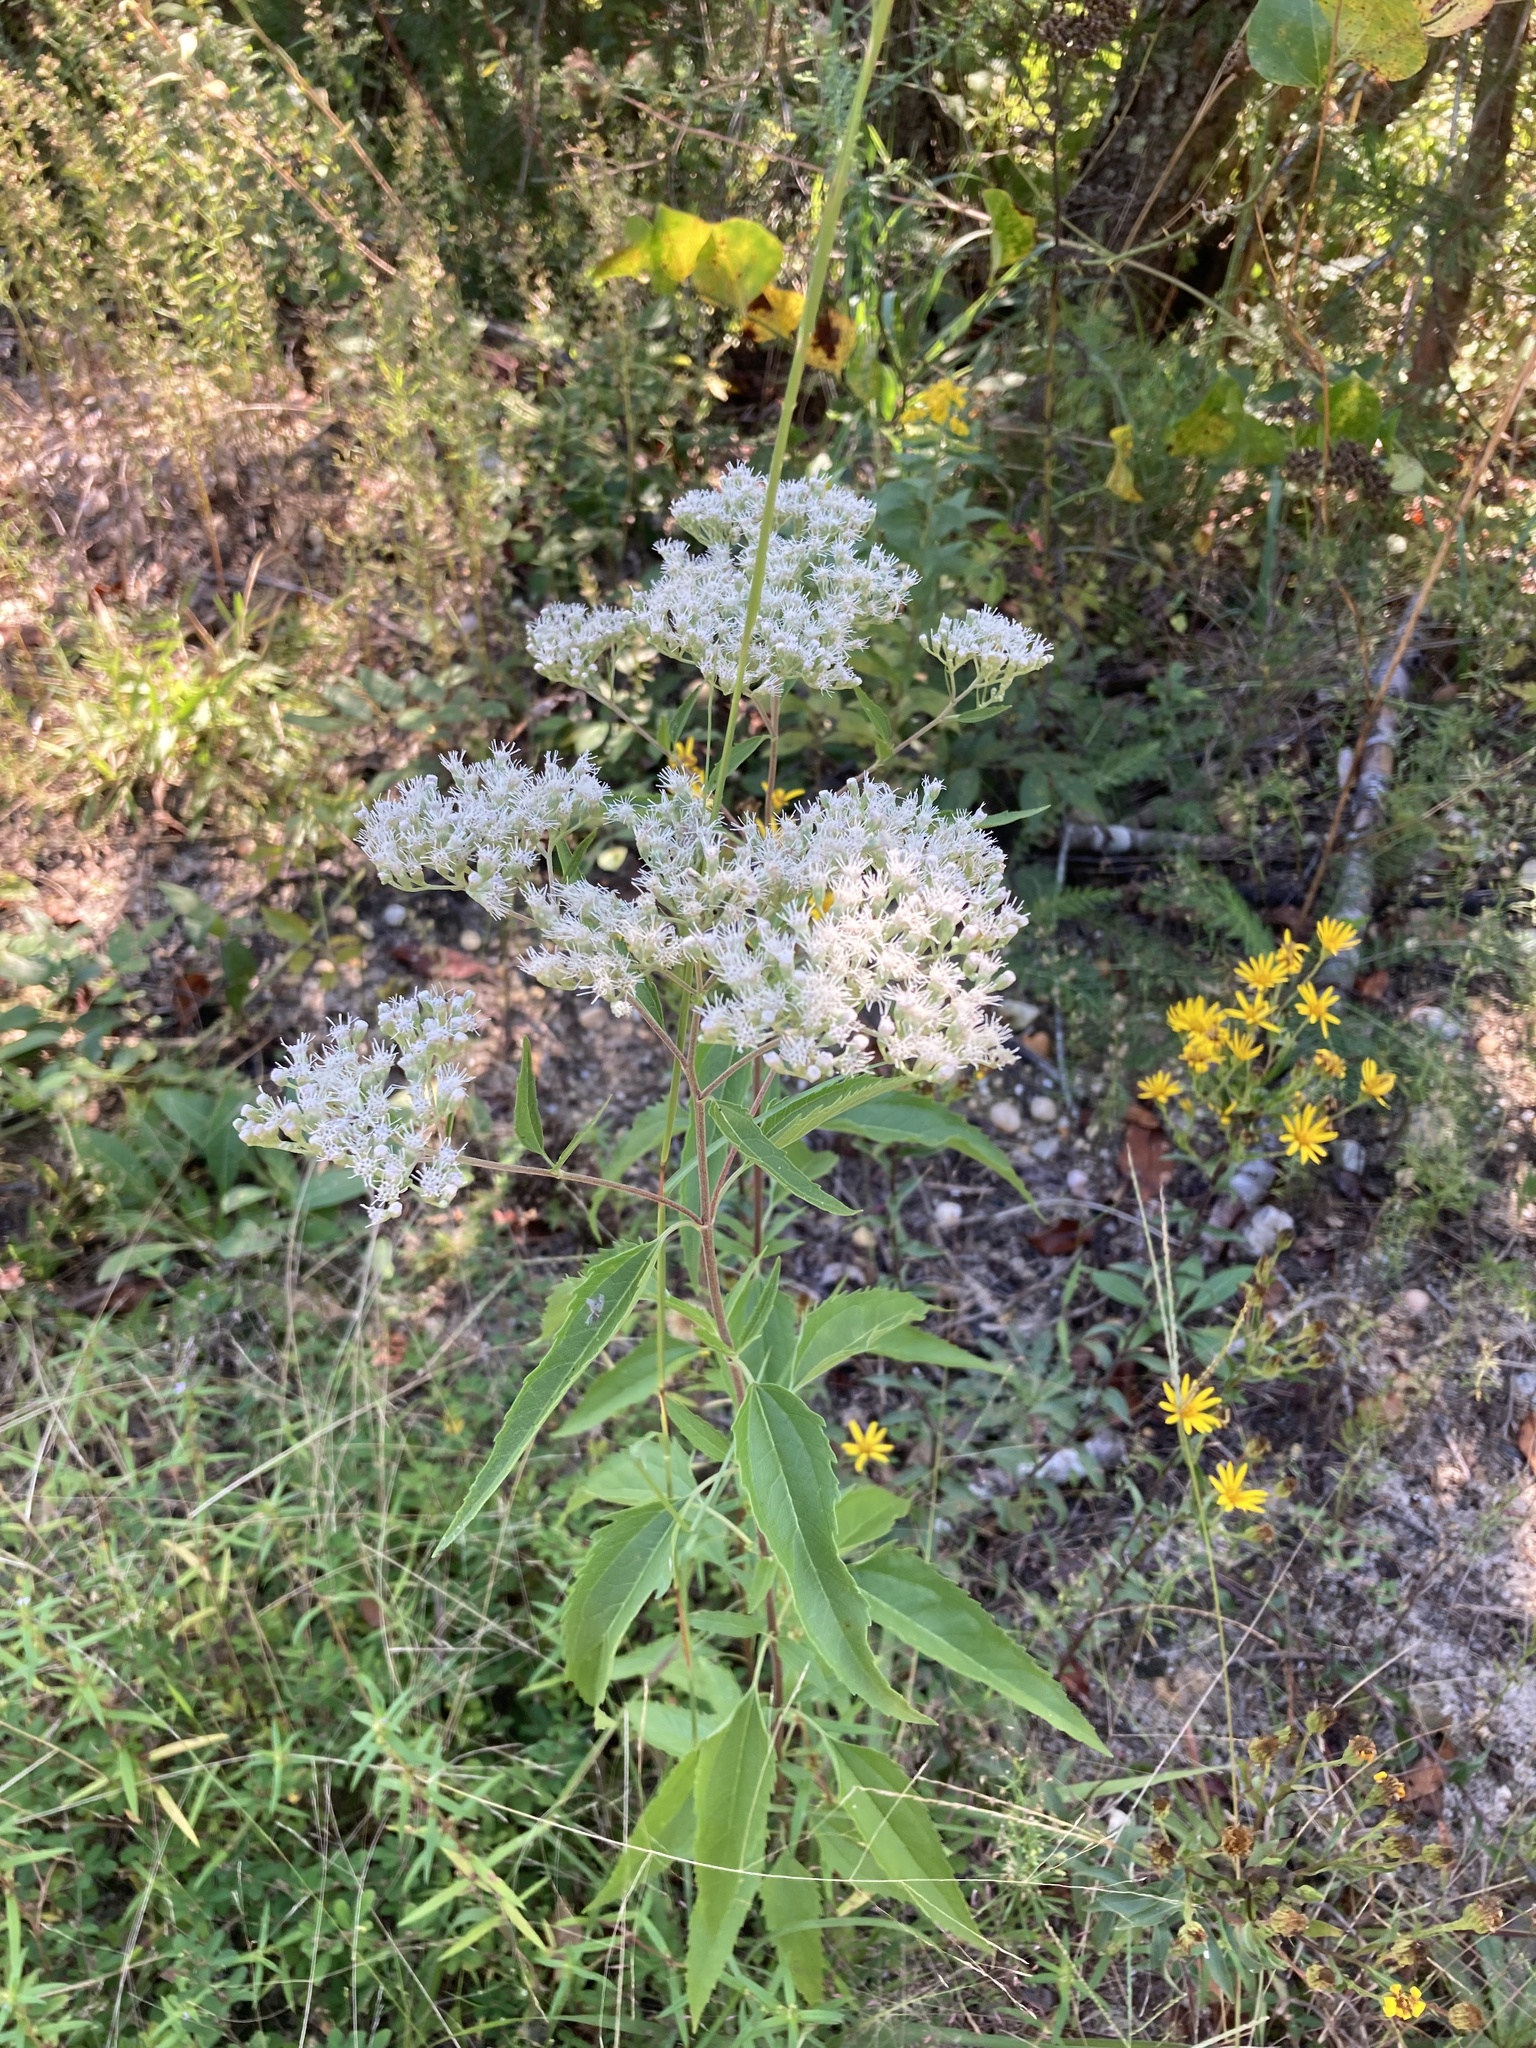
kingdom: Plantae
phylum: Tracheophyta
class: Magnoliopsida
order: Asterales
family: Asteraceae
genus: Eupatorium
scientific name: Eupatorium serotinum
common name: Late boneset
